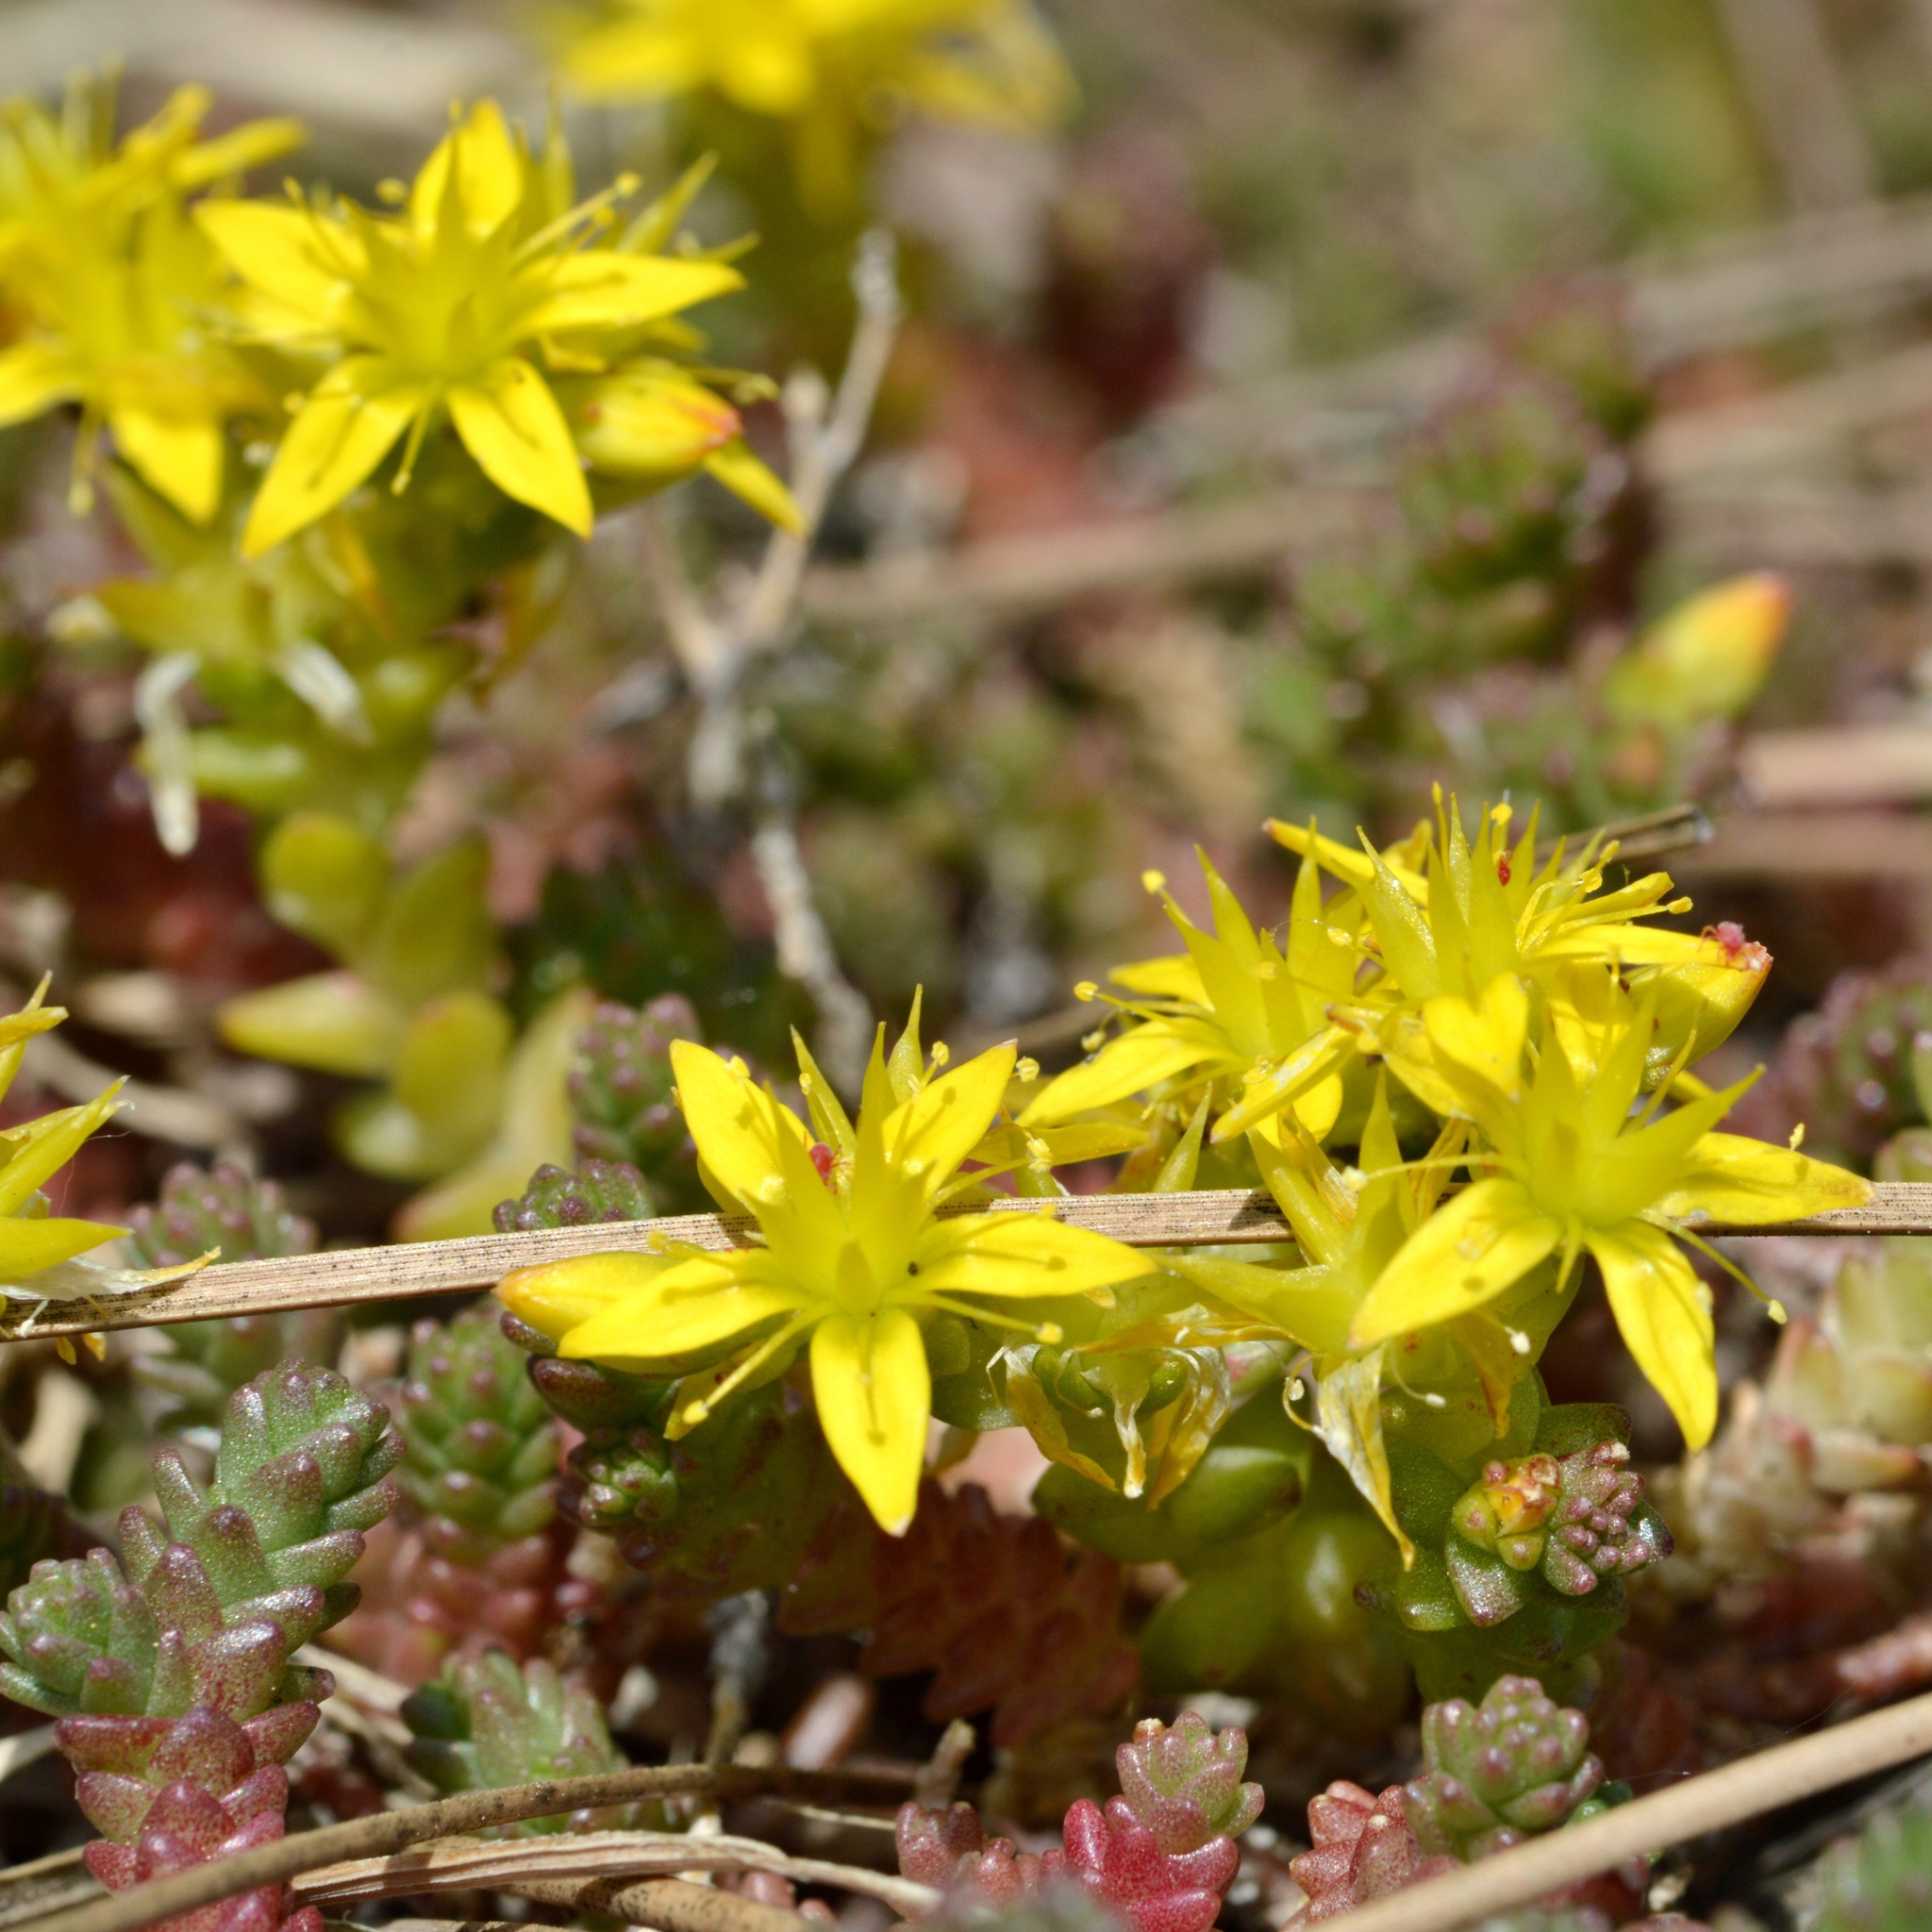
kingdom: Plantae
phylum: Tracheophyta
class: Magnoliopsida
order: Saxifragales
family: Crassulaceae
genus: Sedum
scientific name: Sedum acre
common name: Biting stonecrop
